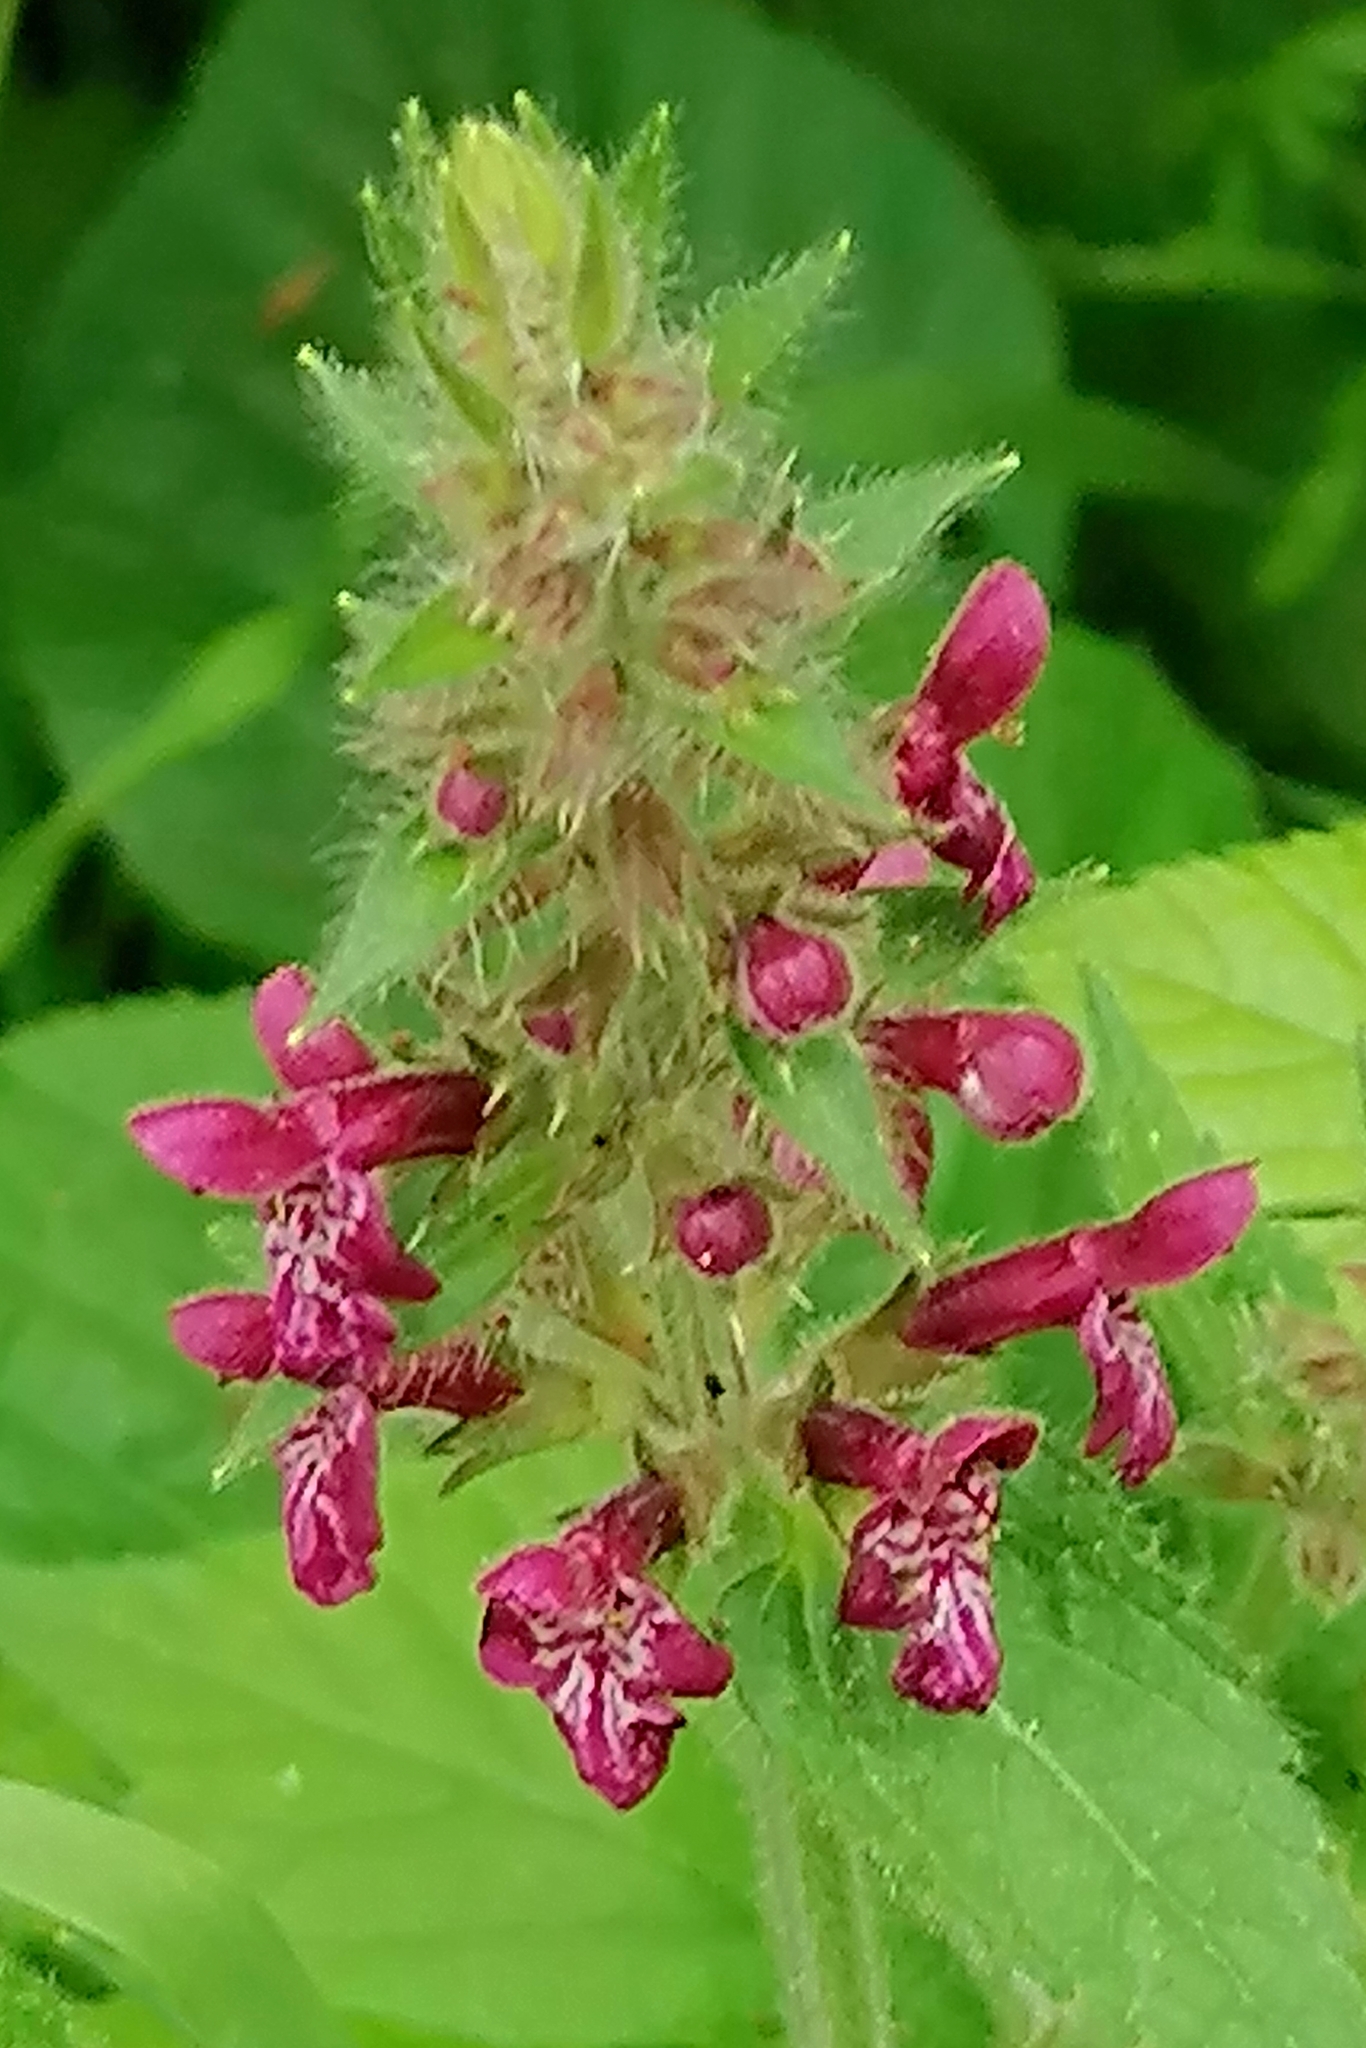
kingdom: Plantae
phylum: Tracheophyta
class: Magnoliopsida
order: Lamiales
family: Lamiaceae
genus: Stachys
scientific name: Stachys sylvatica
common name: Hedge woundwort
